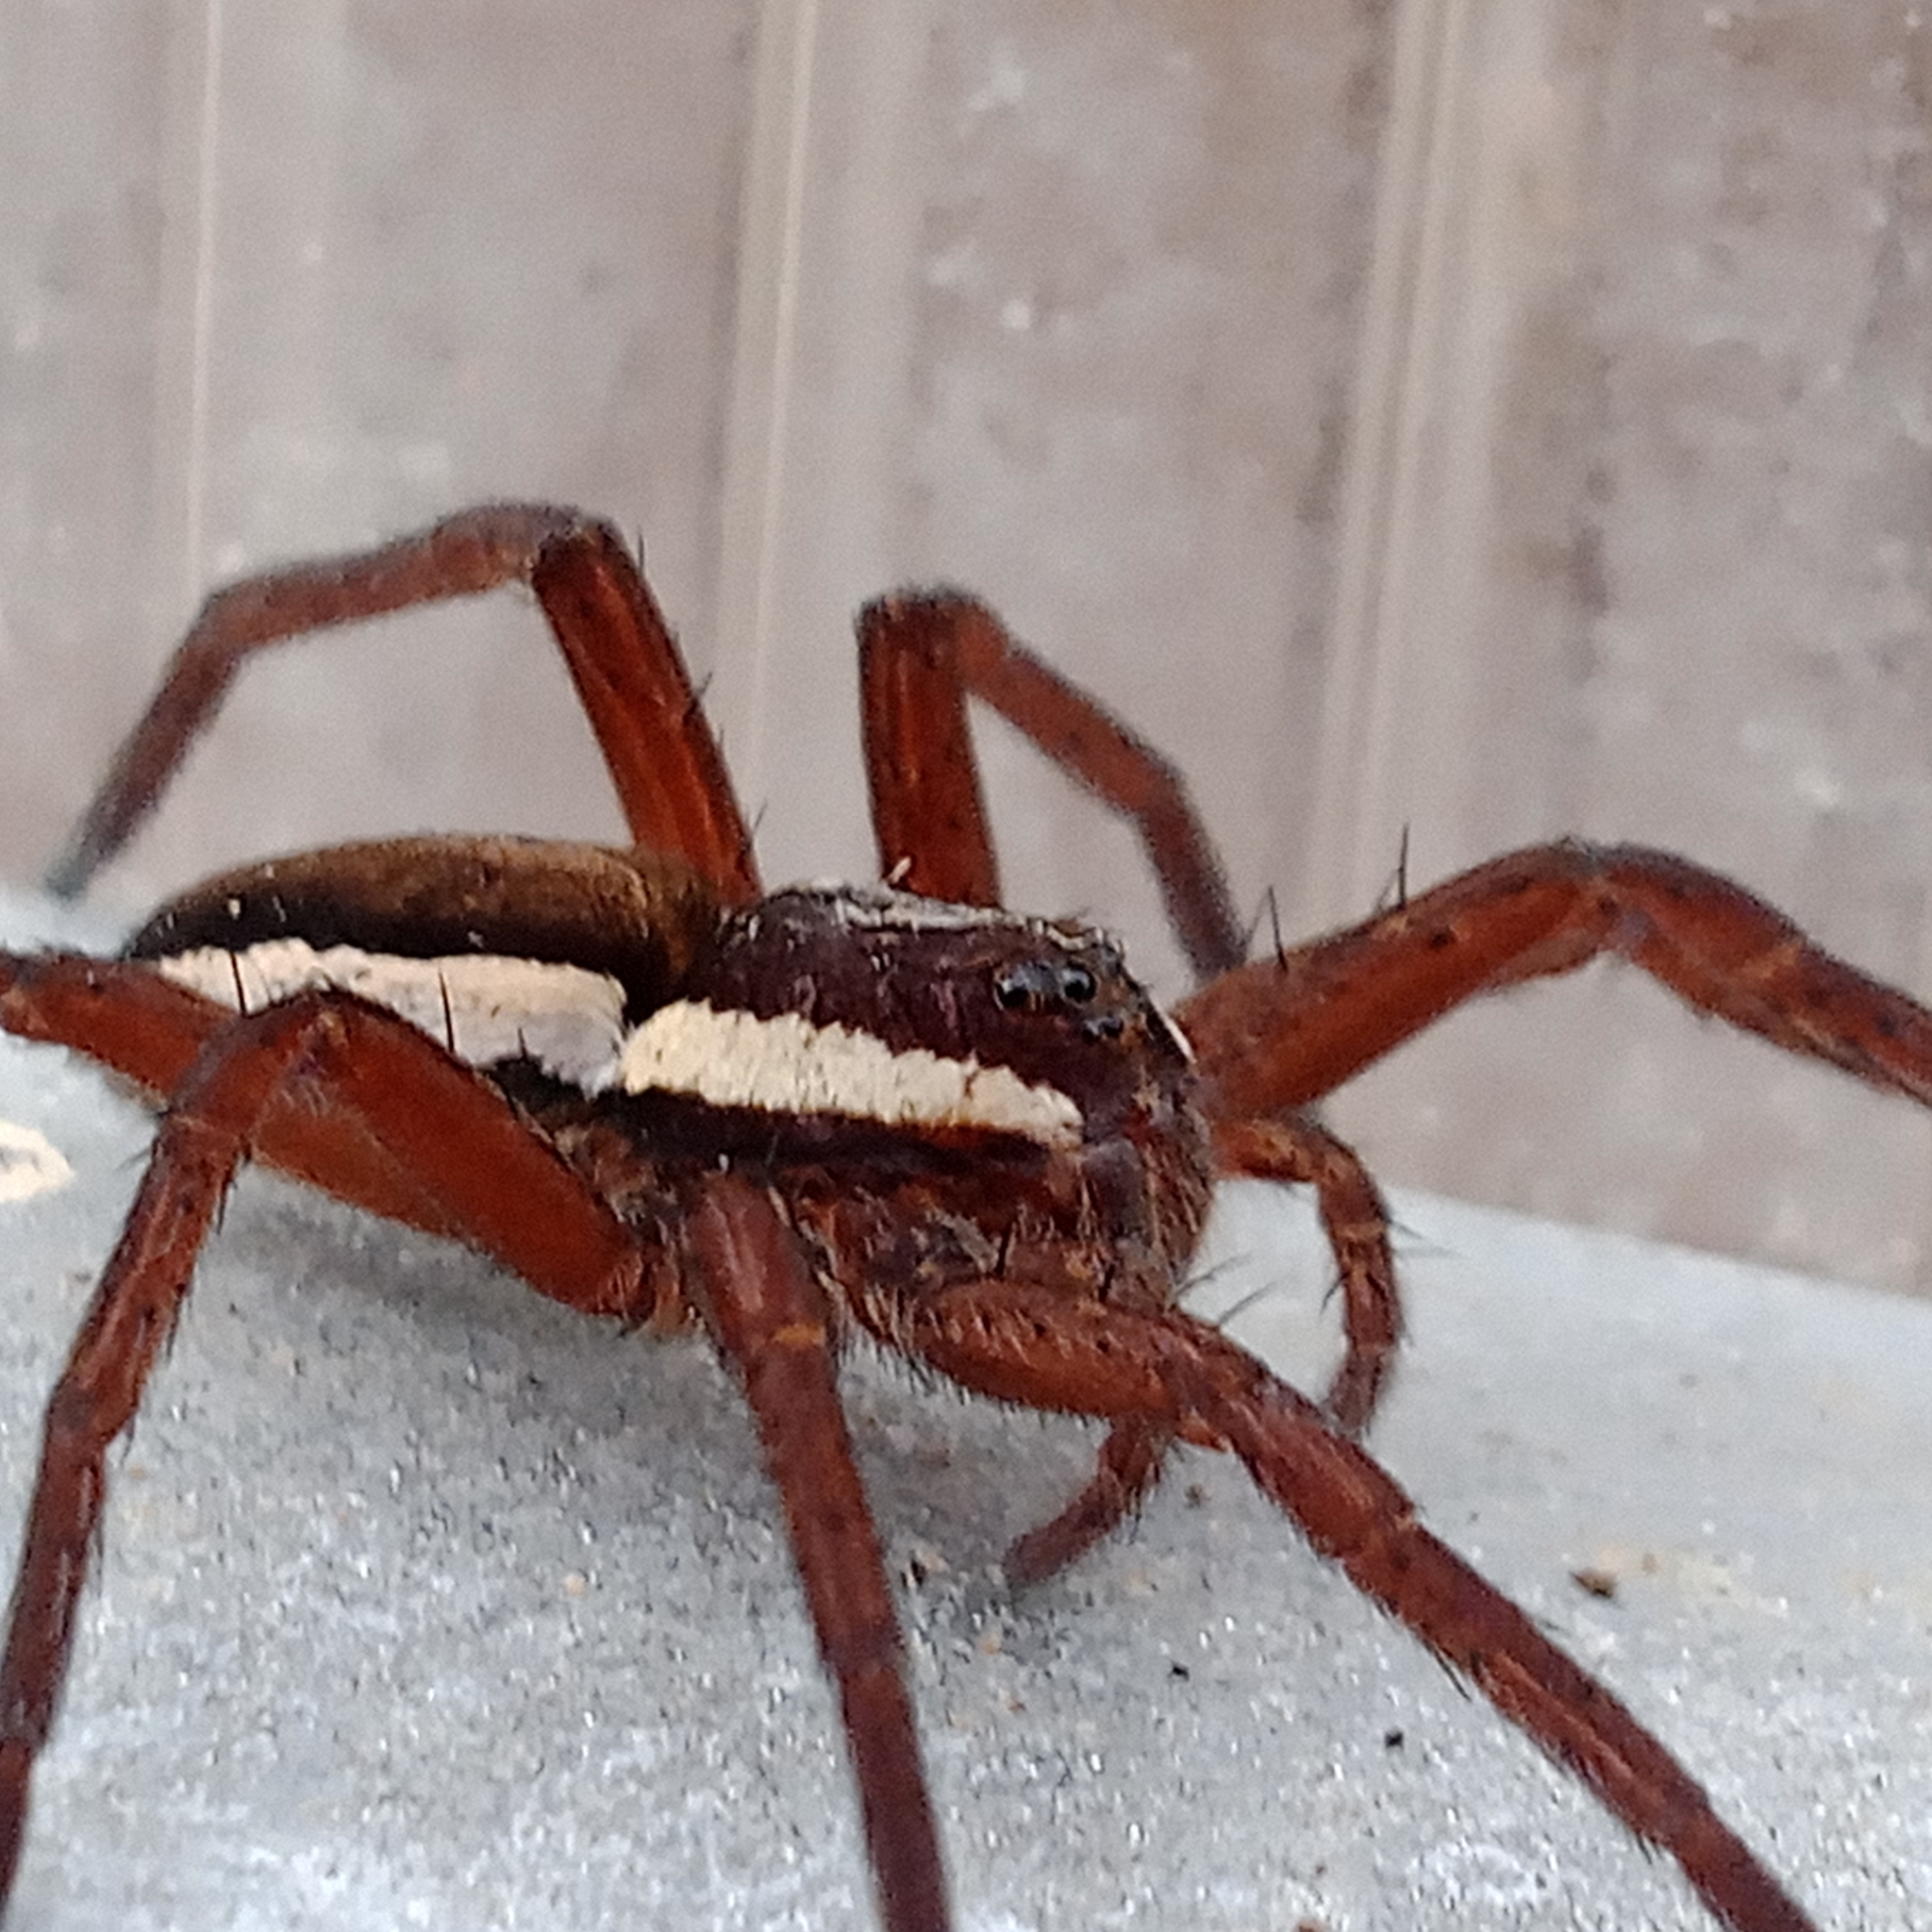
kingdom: Animalia
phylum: Arthropoda
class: Arachnida
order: Araneae
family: Pisauridae
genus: Dolomedes
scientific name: Dolomedes
